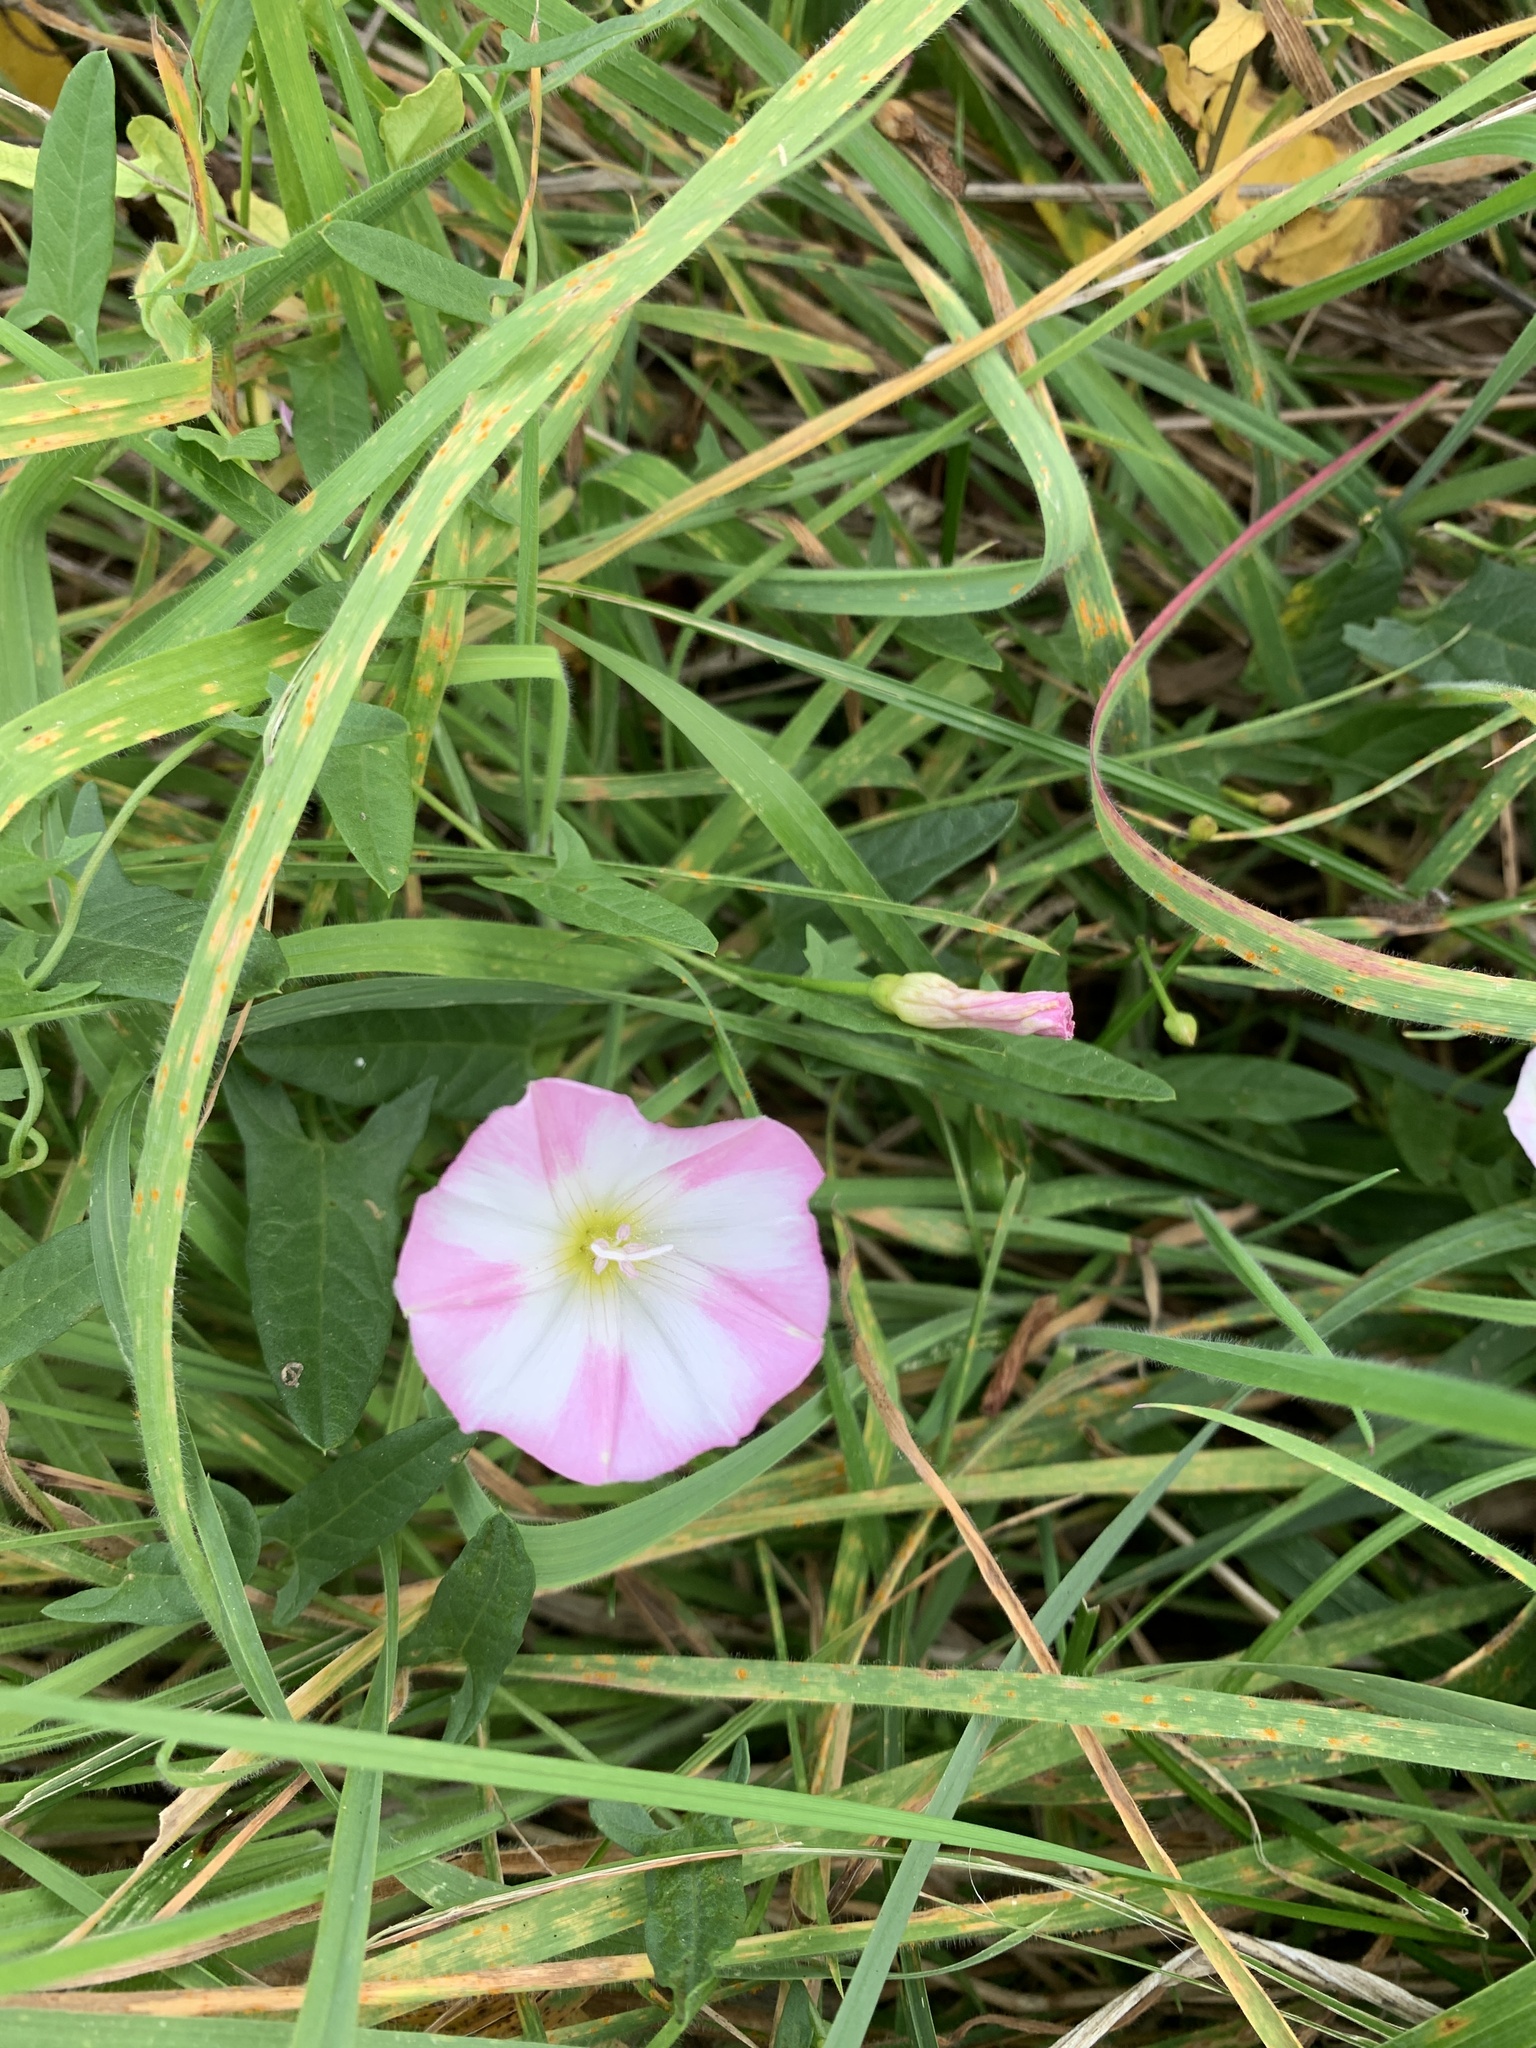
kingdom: Plantae
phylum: Tracheophyta
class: Magnoliopsida
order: Solanales
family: Convolvulaceae
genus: Convolvulus
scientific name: Convolvulus arvensis
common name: Field bindweed
